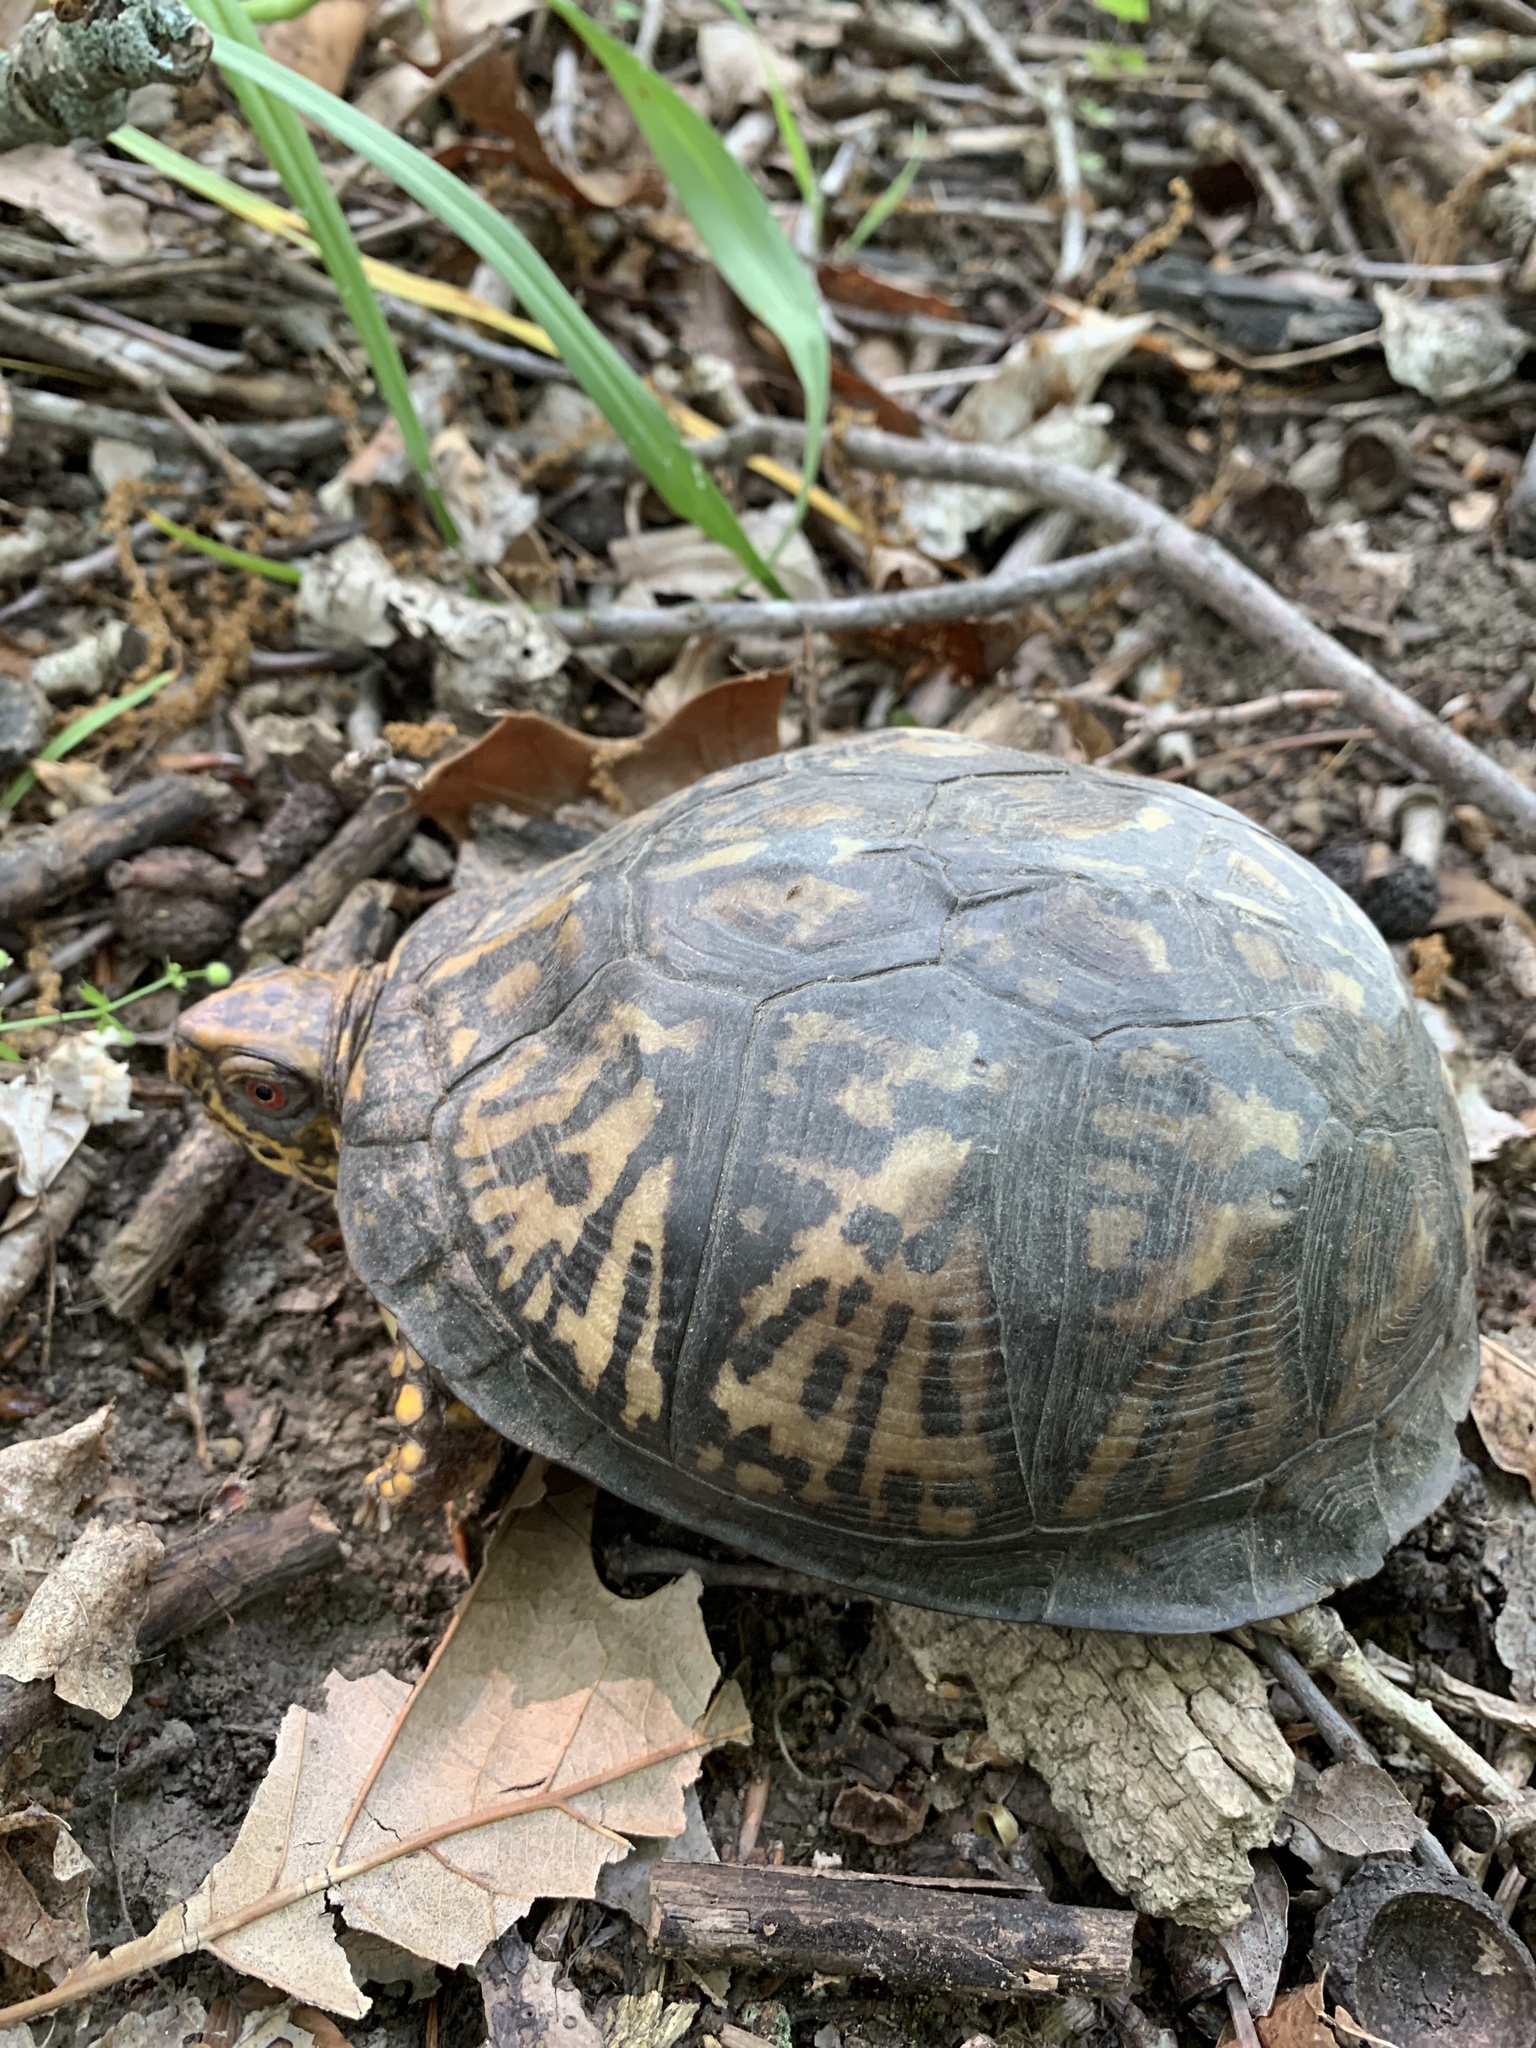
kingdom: Animalia
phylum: Chordata
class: Testudines
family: Emydidae
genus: Terrapene
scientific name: Terrapene carolina
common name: Common box turtle
